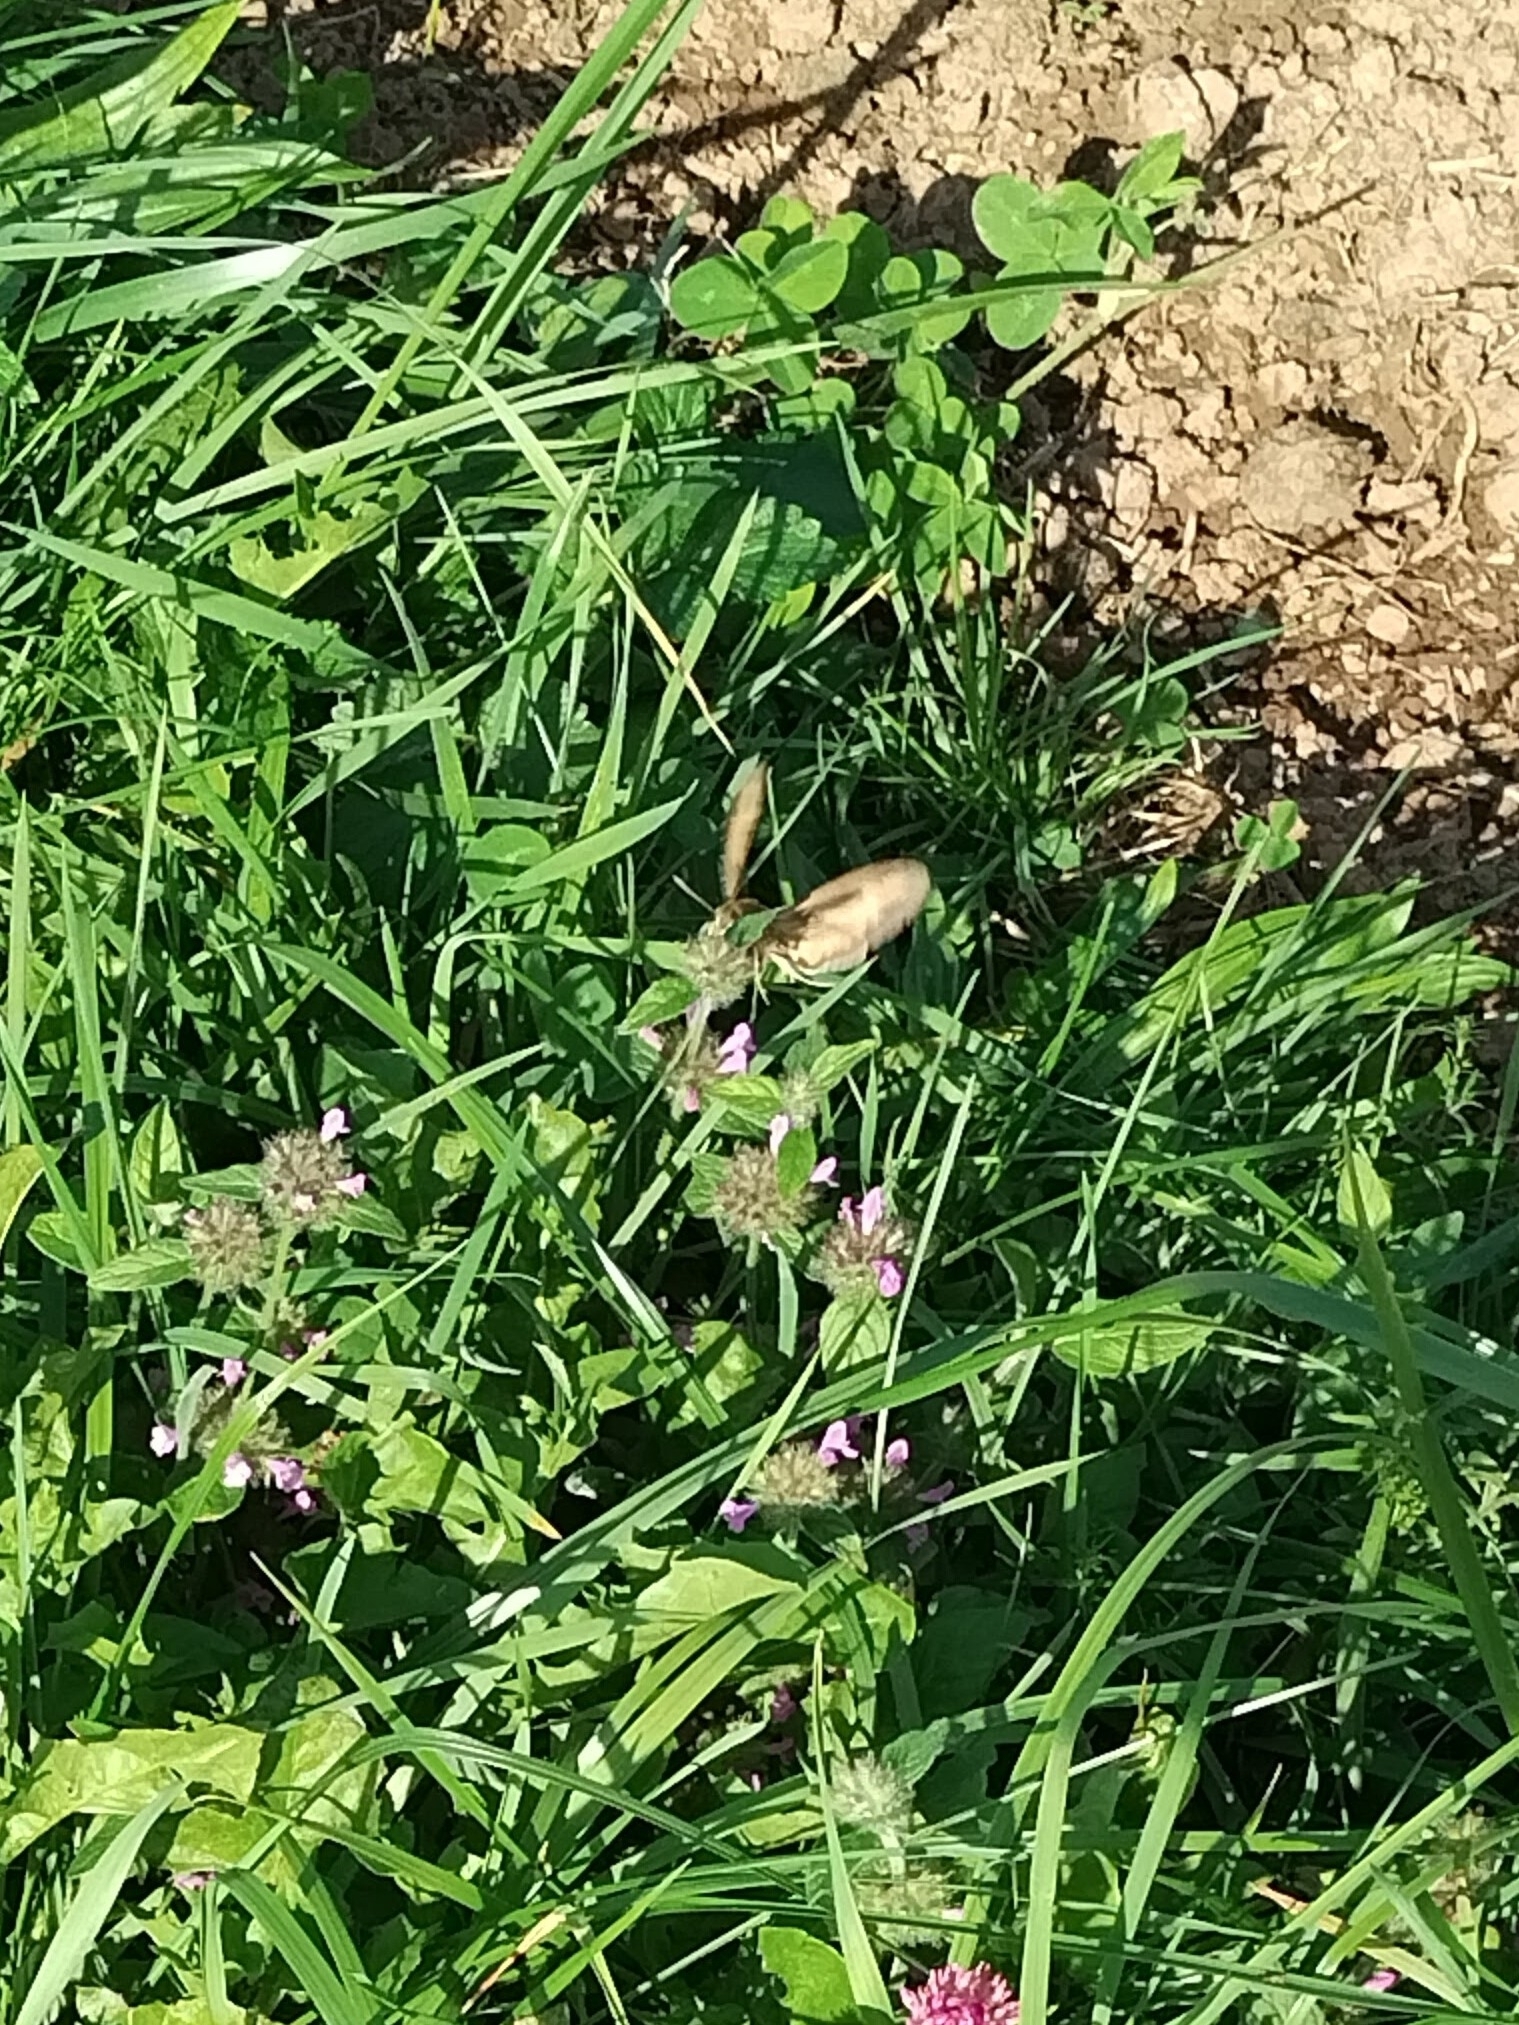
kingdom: Animalia
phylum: Arthropoda
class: Insecta
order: Lepidoptera
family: Sphingidae
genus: Hyles
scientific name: Hyles gallii
